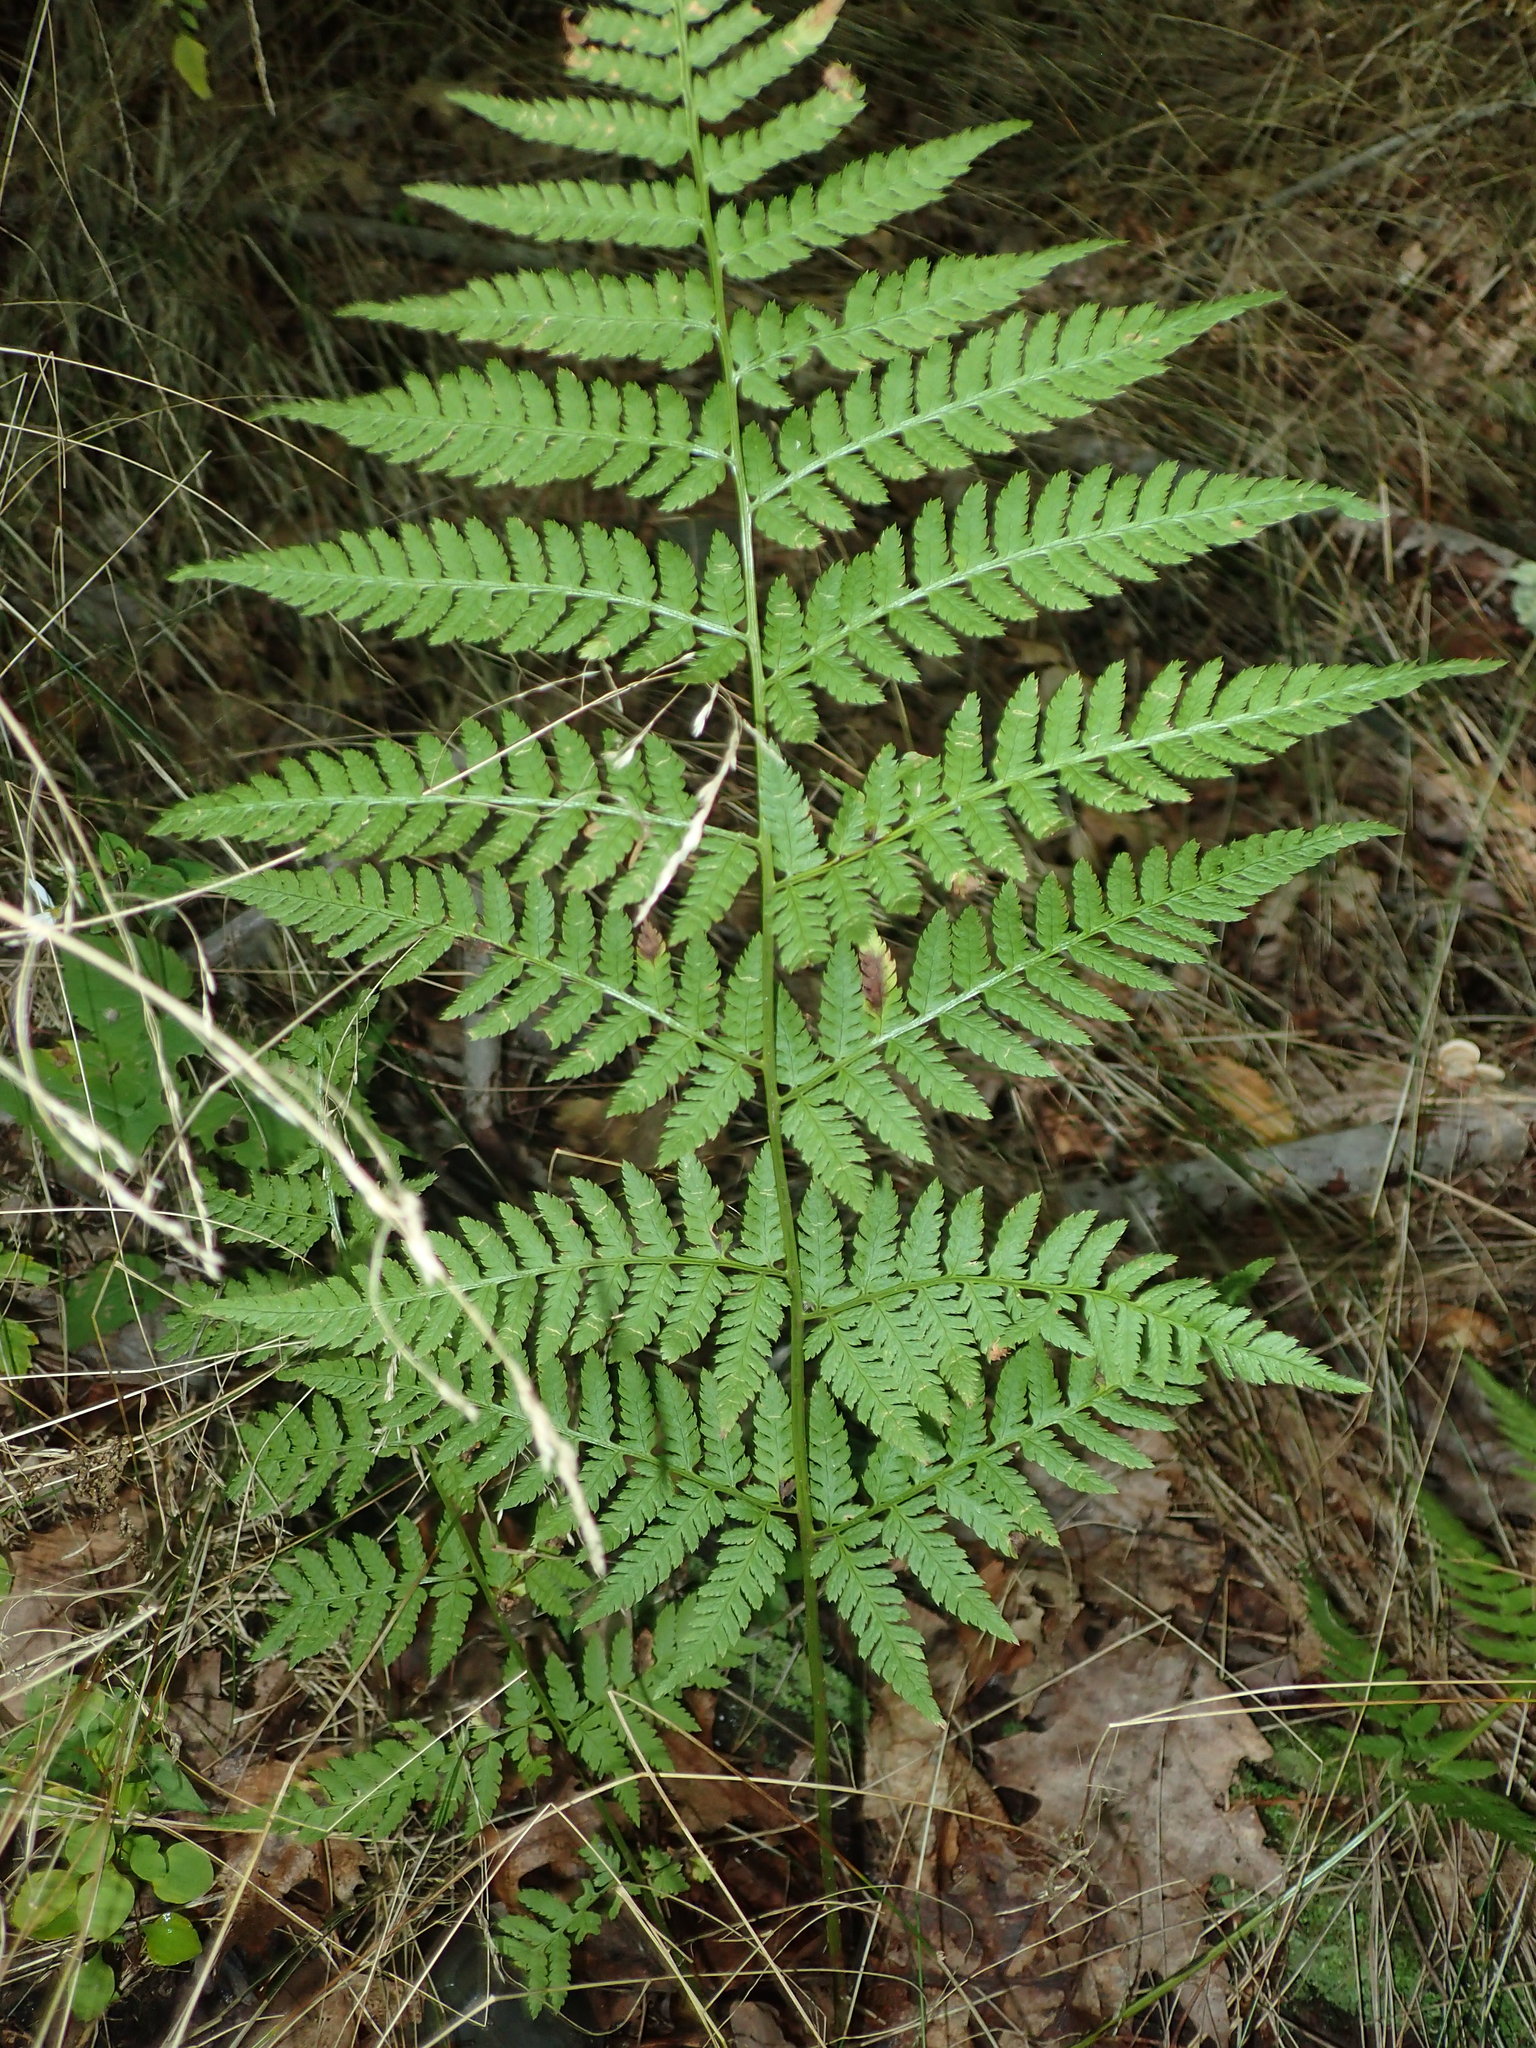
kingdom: Plantae
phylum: Tracheophyta
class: Polypodiopsida
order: Polypodiales
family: Dryopteridaceae
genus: Dryopteris
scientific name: Dryopteris carthusiana
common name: Narrow buckler-fern
